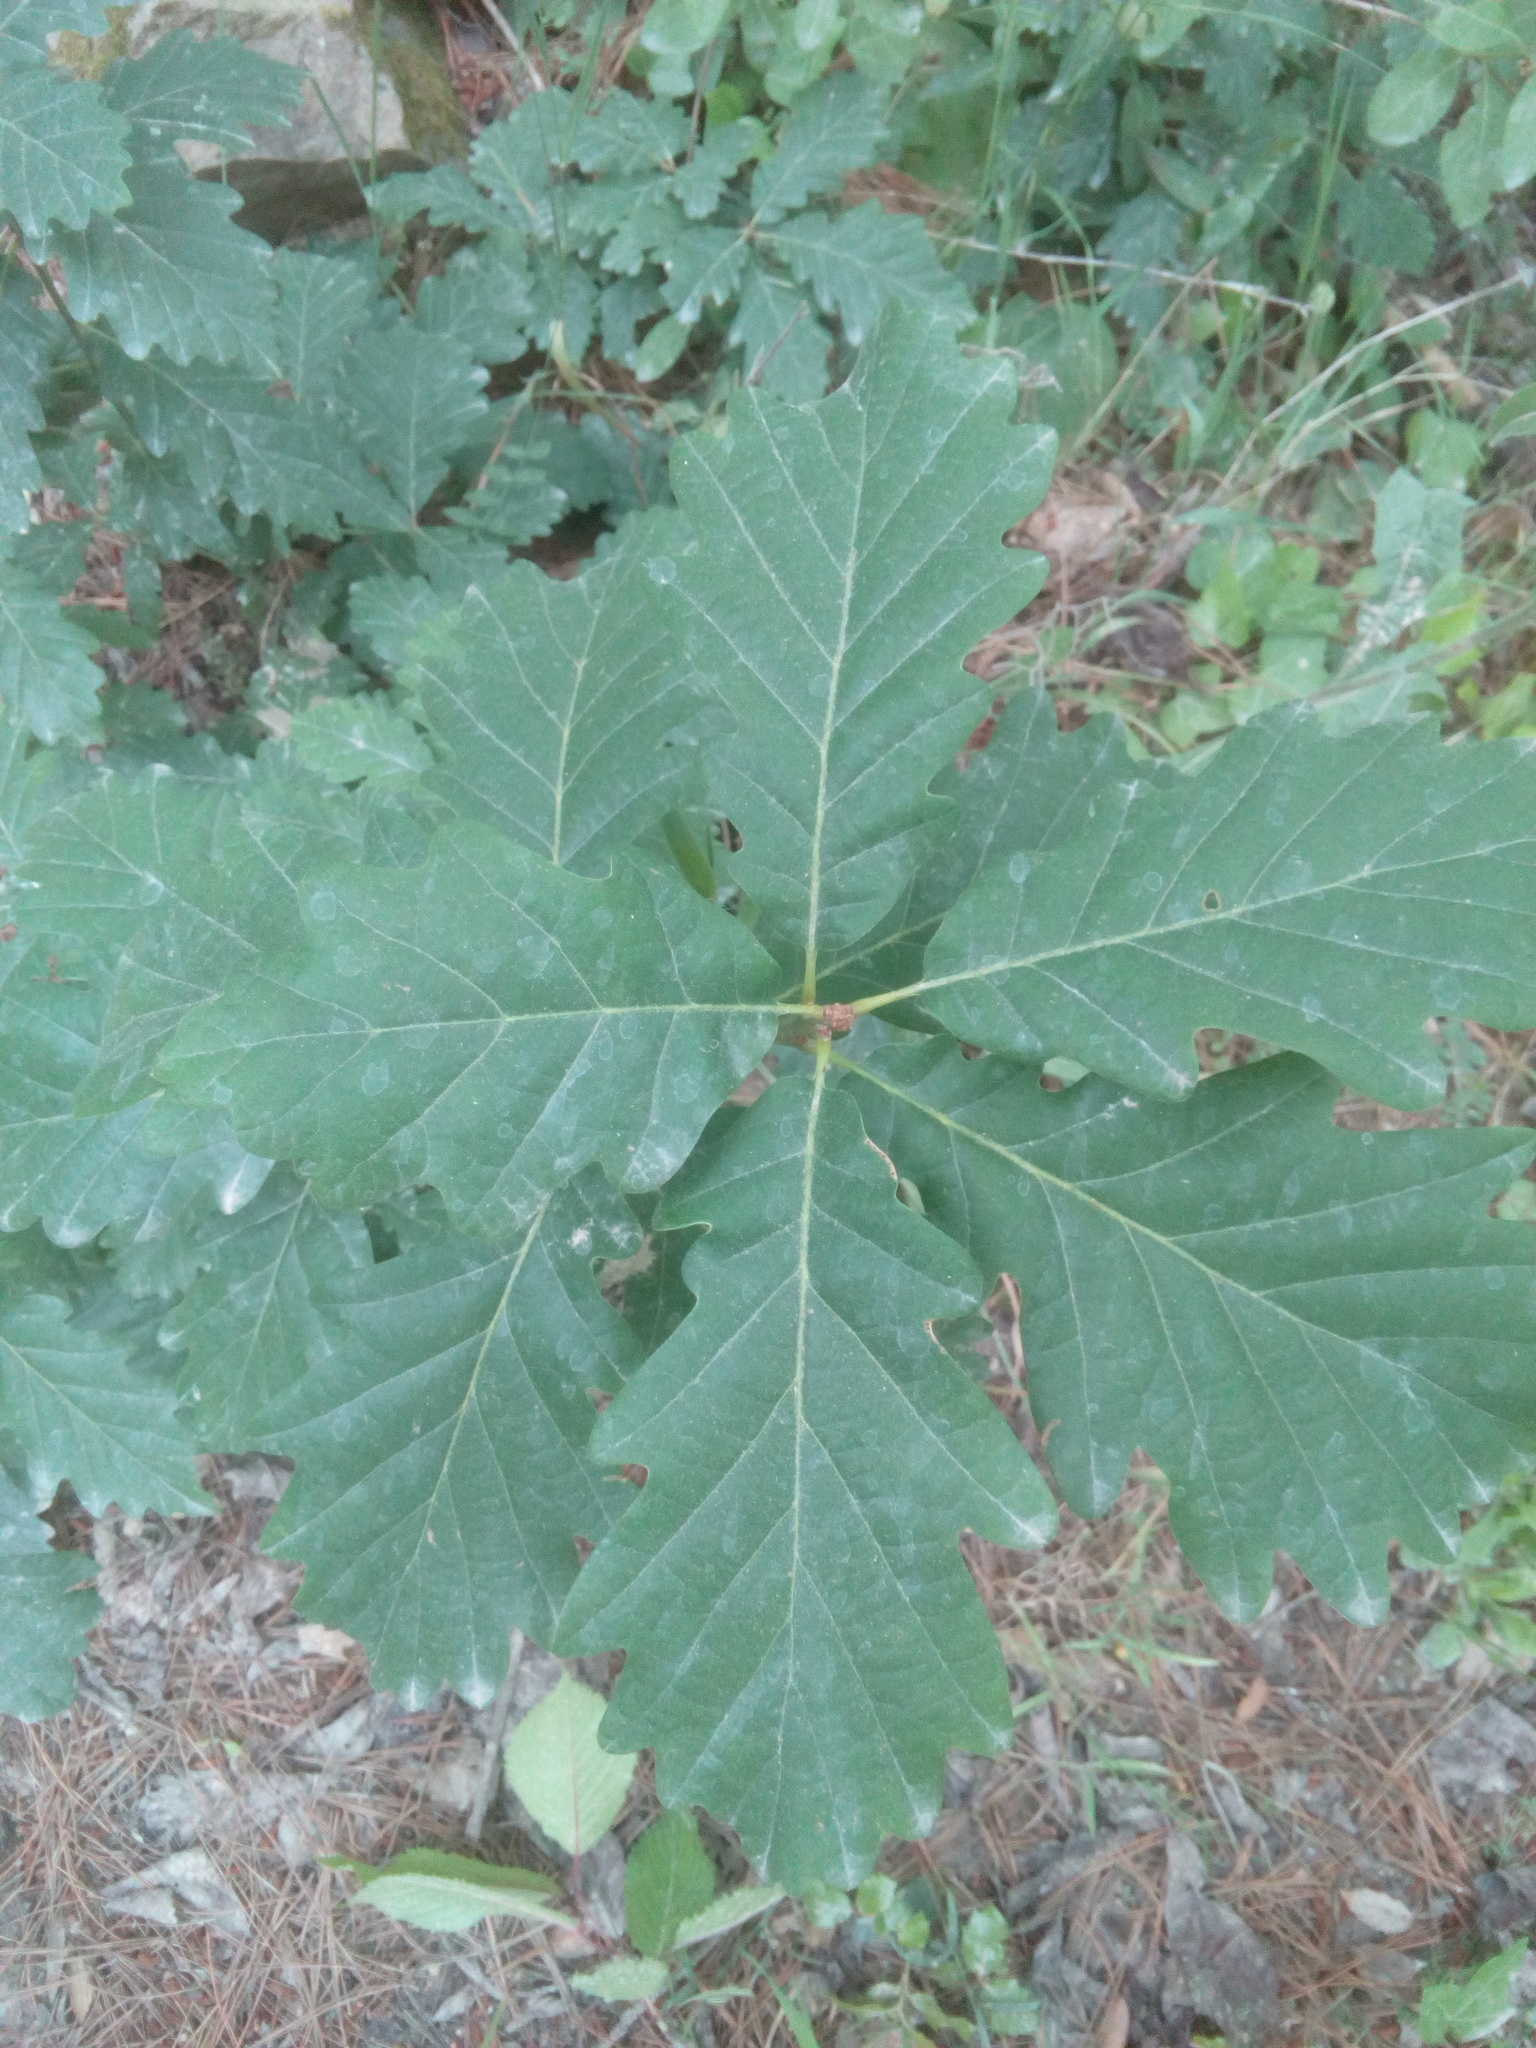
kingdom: Plantae
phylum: Tracheophyta
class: Magnoliopsida
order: Fagales
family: Fagaceae
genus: Quercus
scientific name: Quercus petraea
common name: Sessile oak
